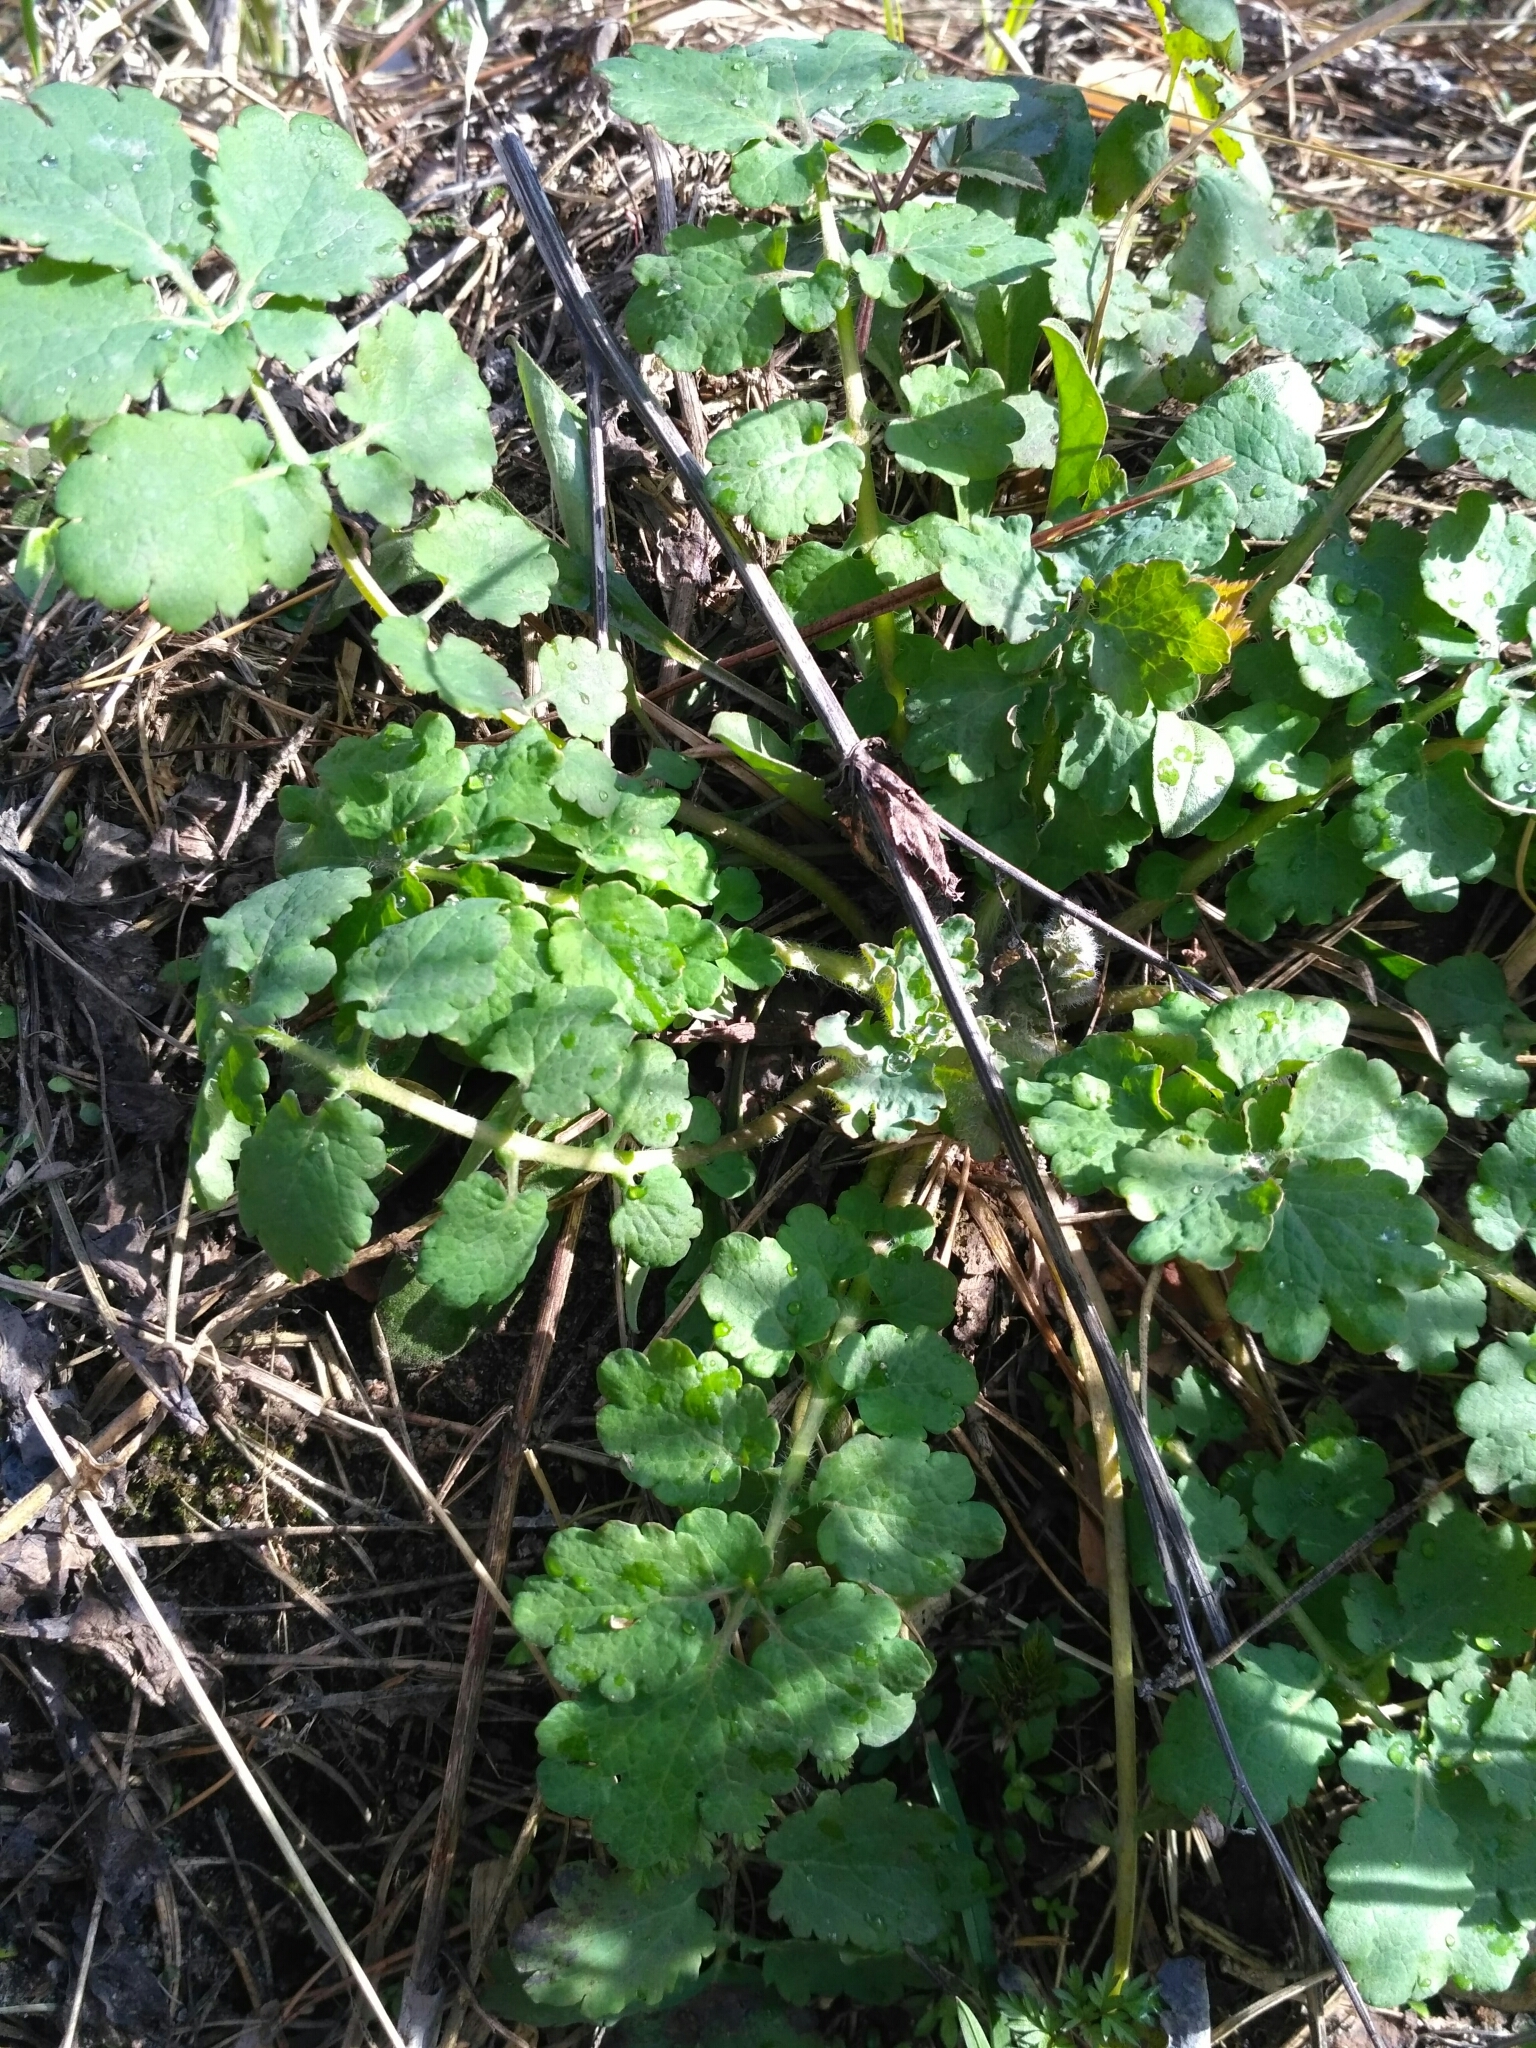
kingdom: Plantae
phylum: Tracheophyta
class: Magnoliopsida
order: Ranunculales
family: Papaveraceae
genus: Chelidonium
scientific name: Chelidonium majus
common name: Greater celandine
